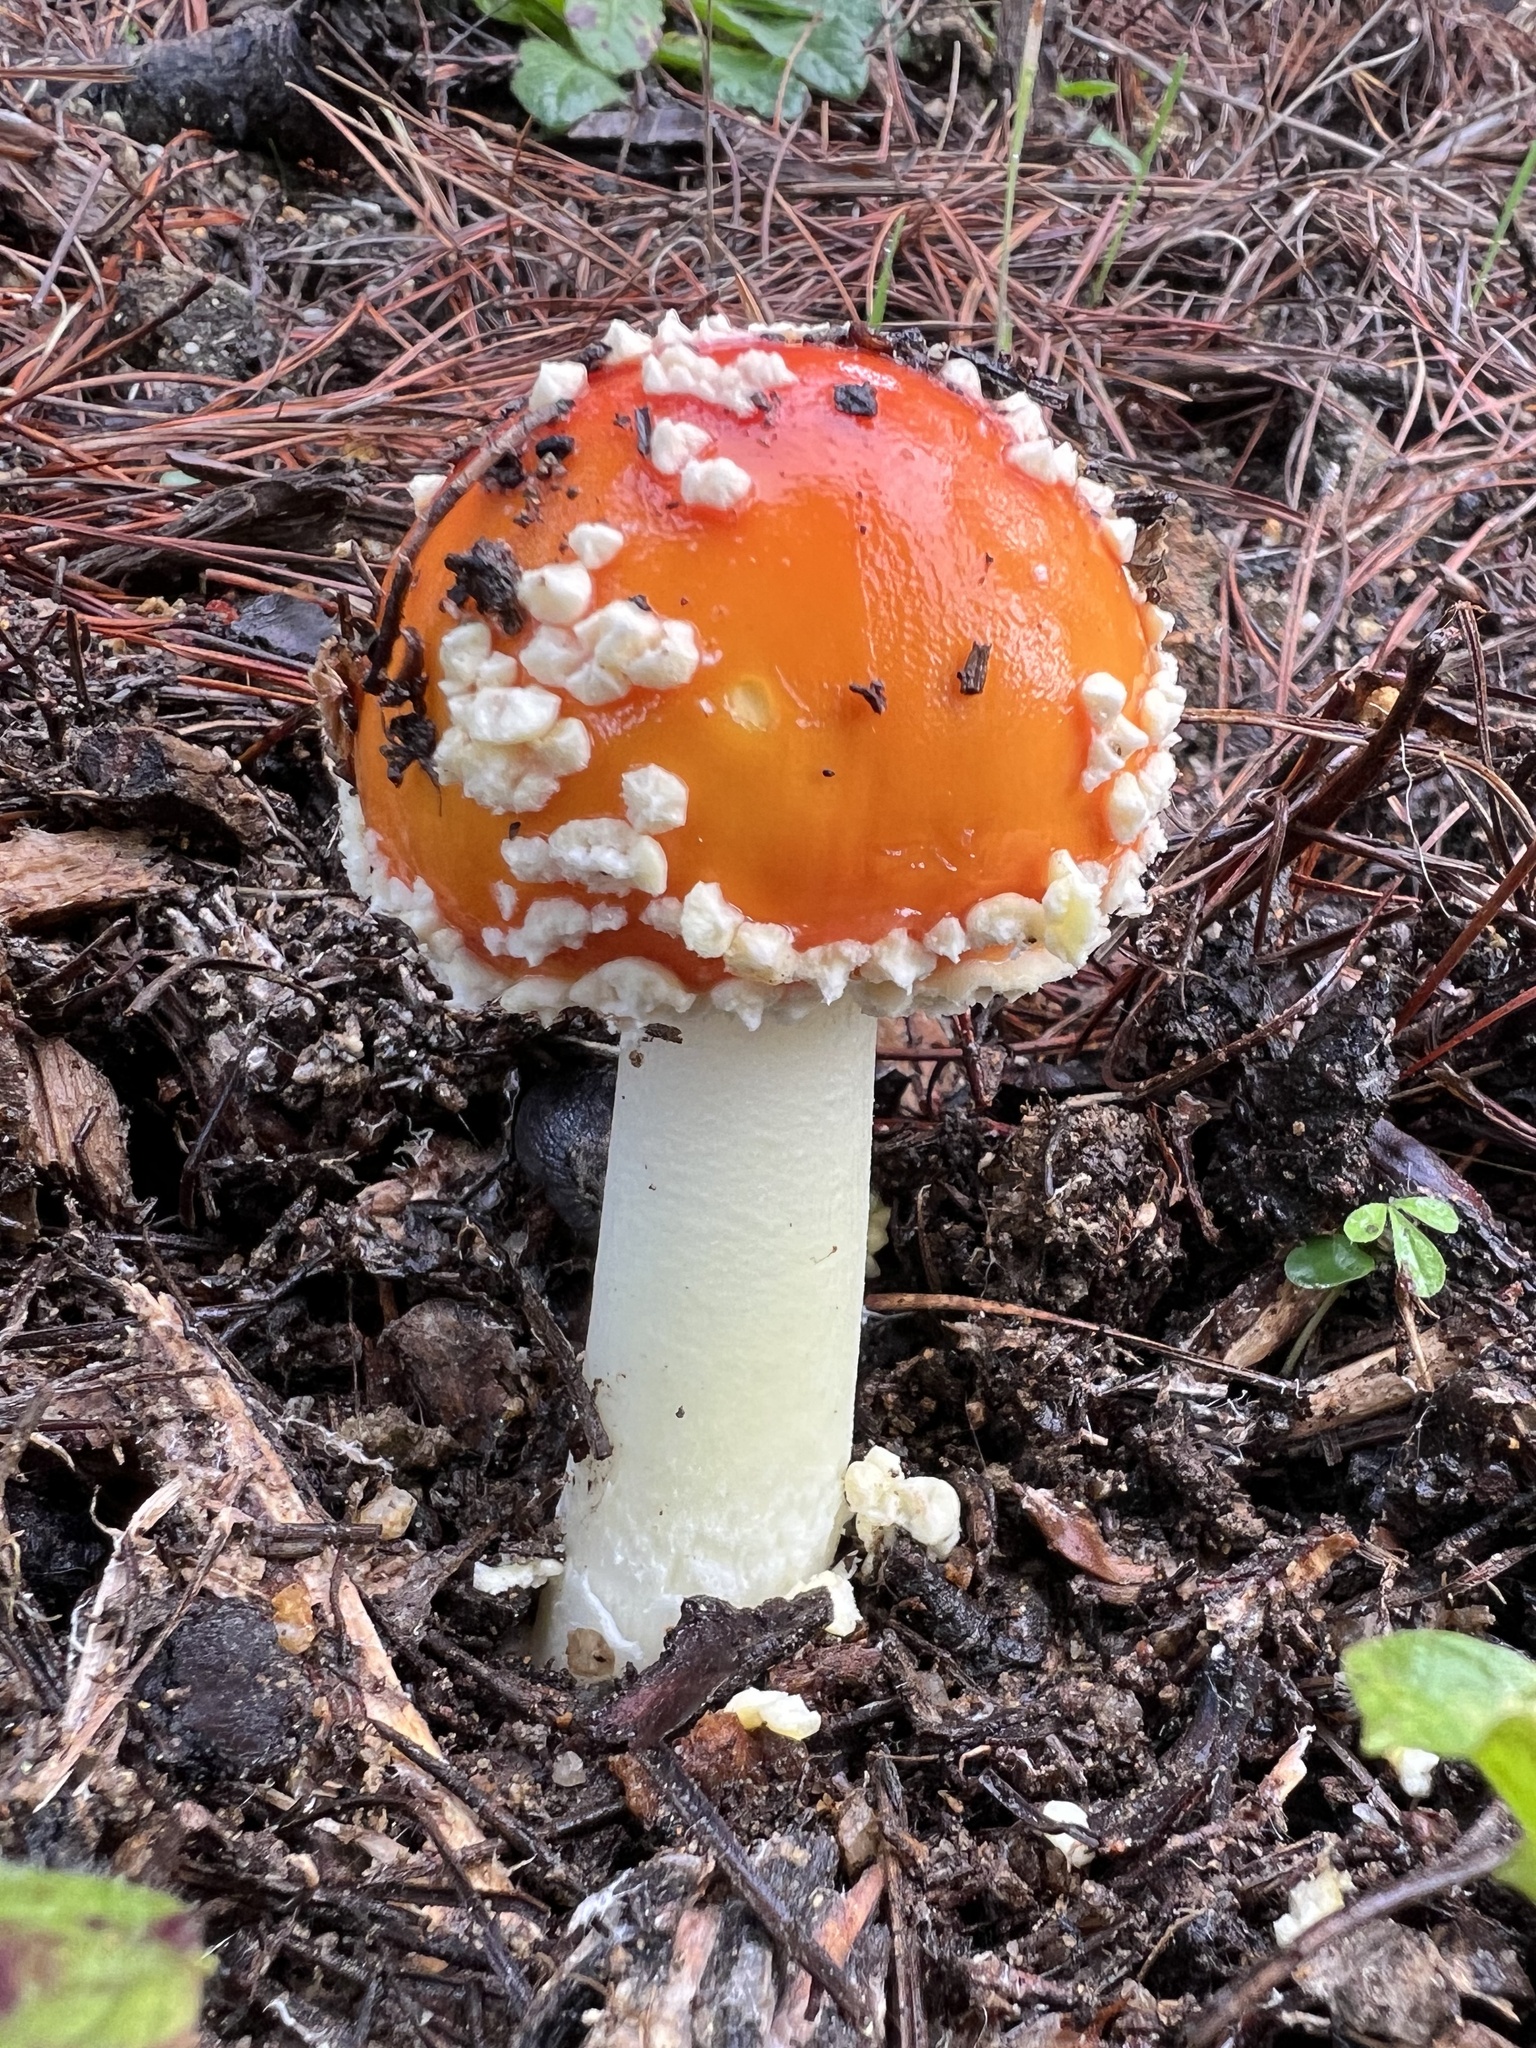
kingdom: Fungi
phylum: Basidiomycota
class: Agaricomycetes
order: Agaricales
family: Amanitaceae
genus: Amanita
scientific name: Amanita muscaria
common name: Fly agaric
